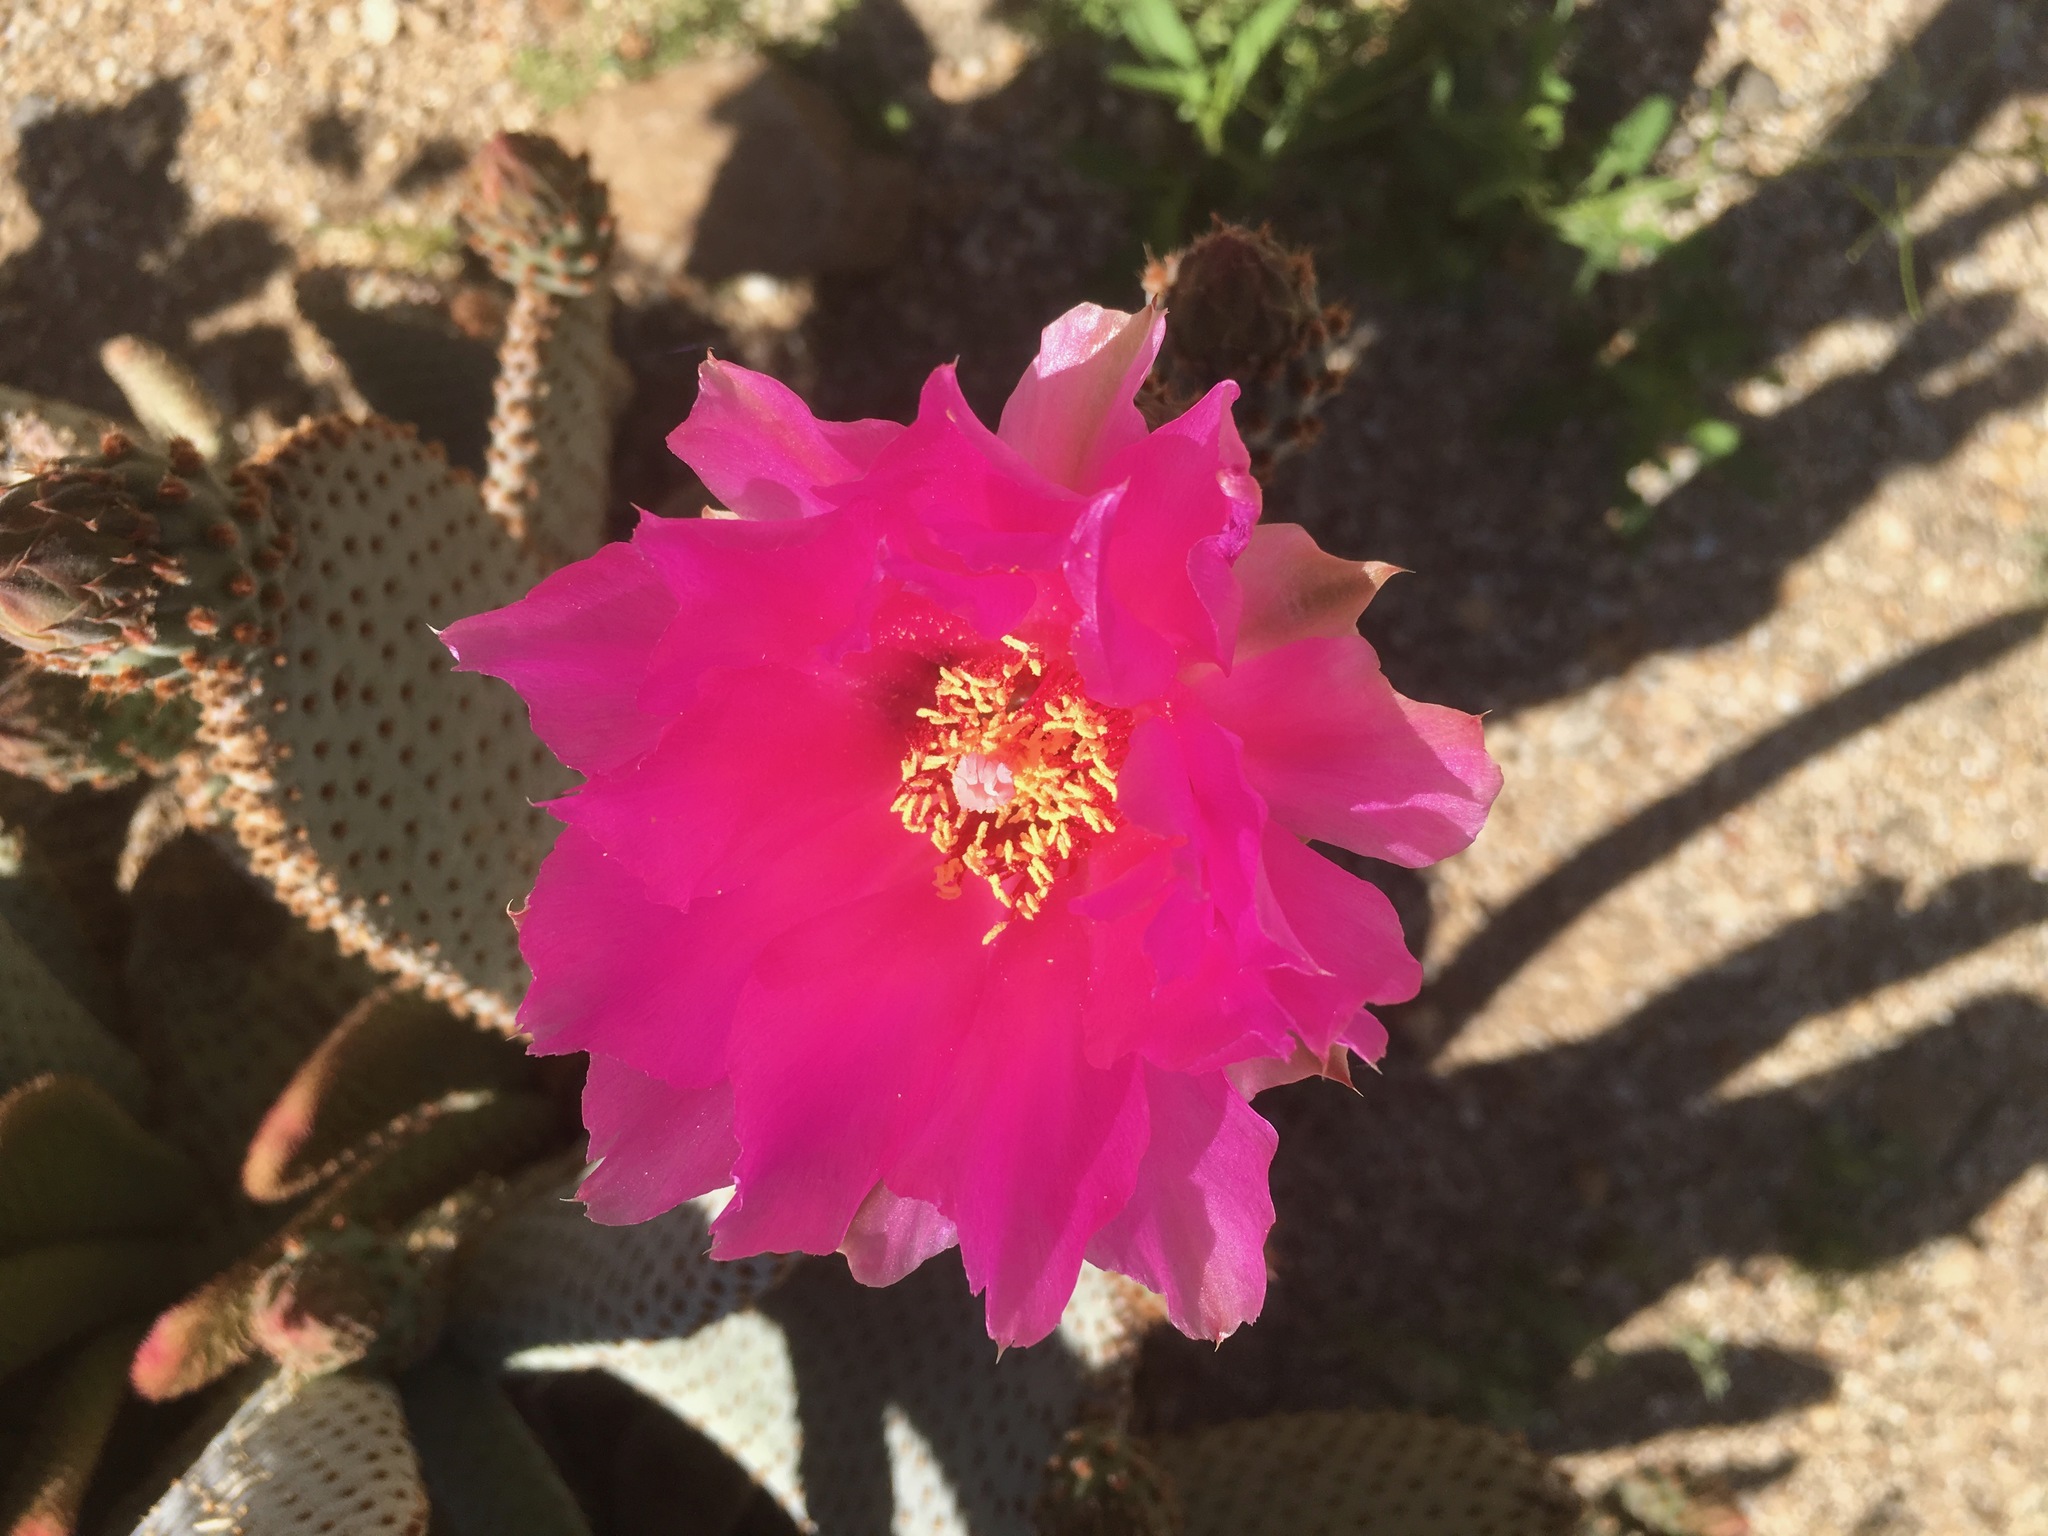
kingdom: Plantae
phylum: Tracheophyta
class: Magnoliopsida
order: Caryophyllales
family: Cactaceae
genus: Opuntia
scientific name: Opuntia basilaris
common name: Beavertail prickly-pear
